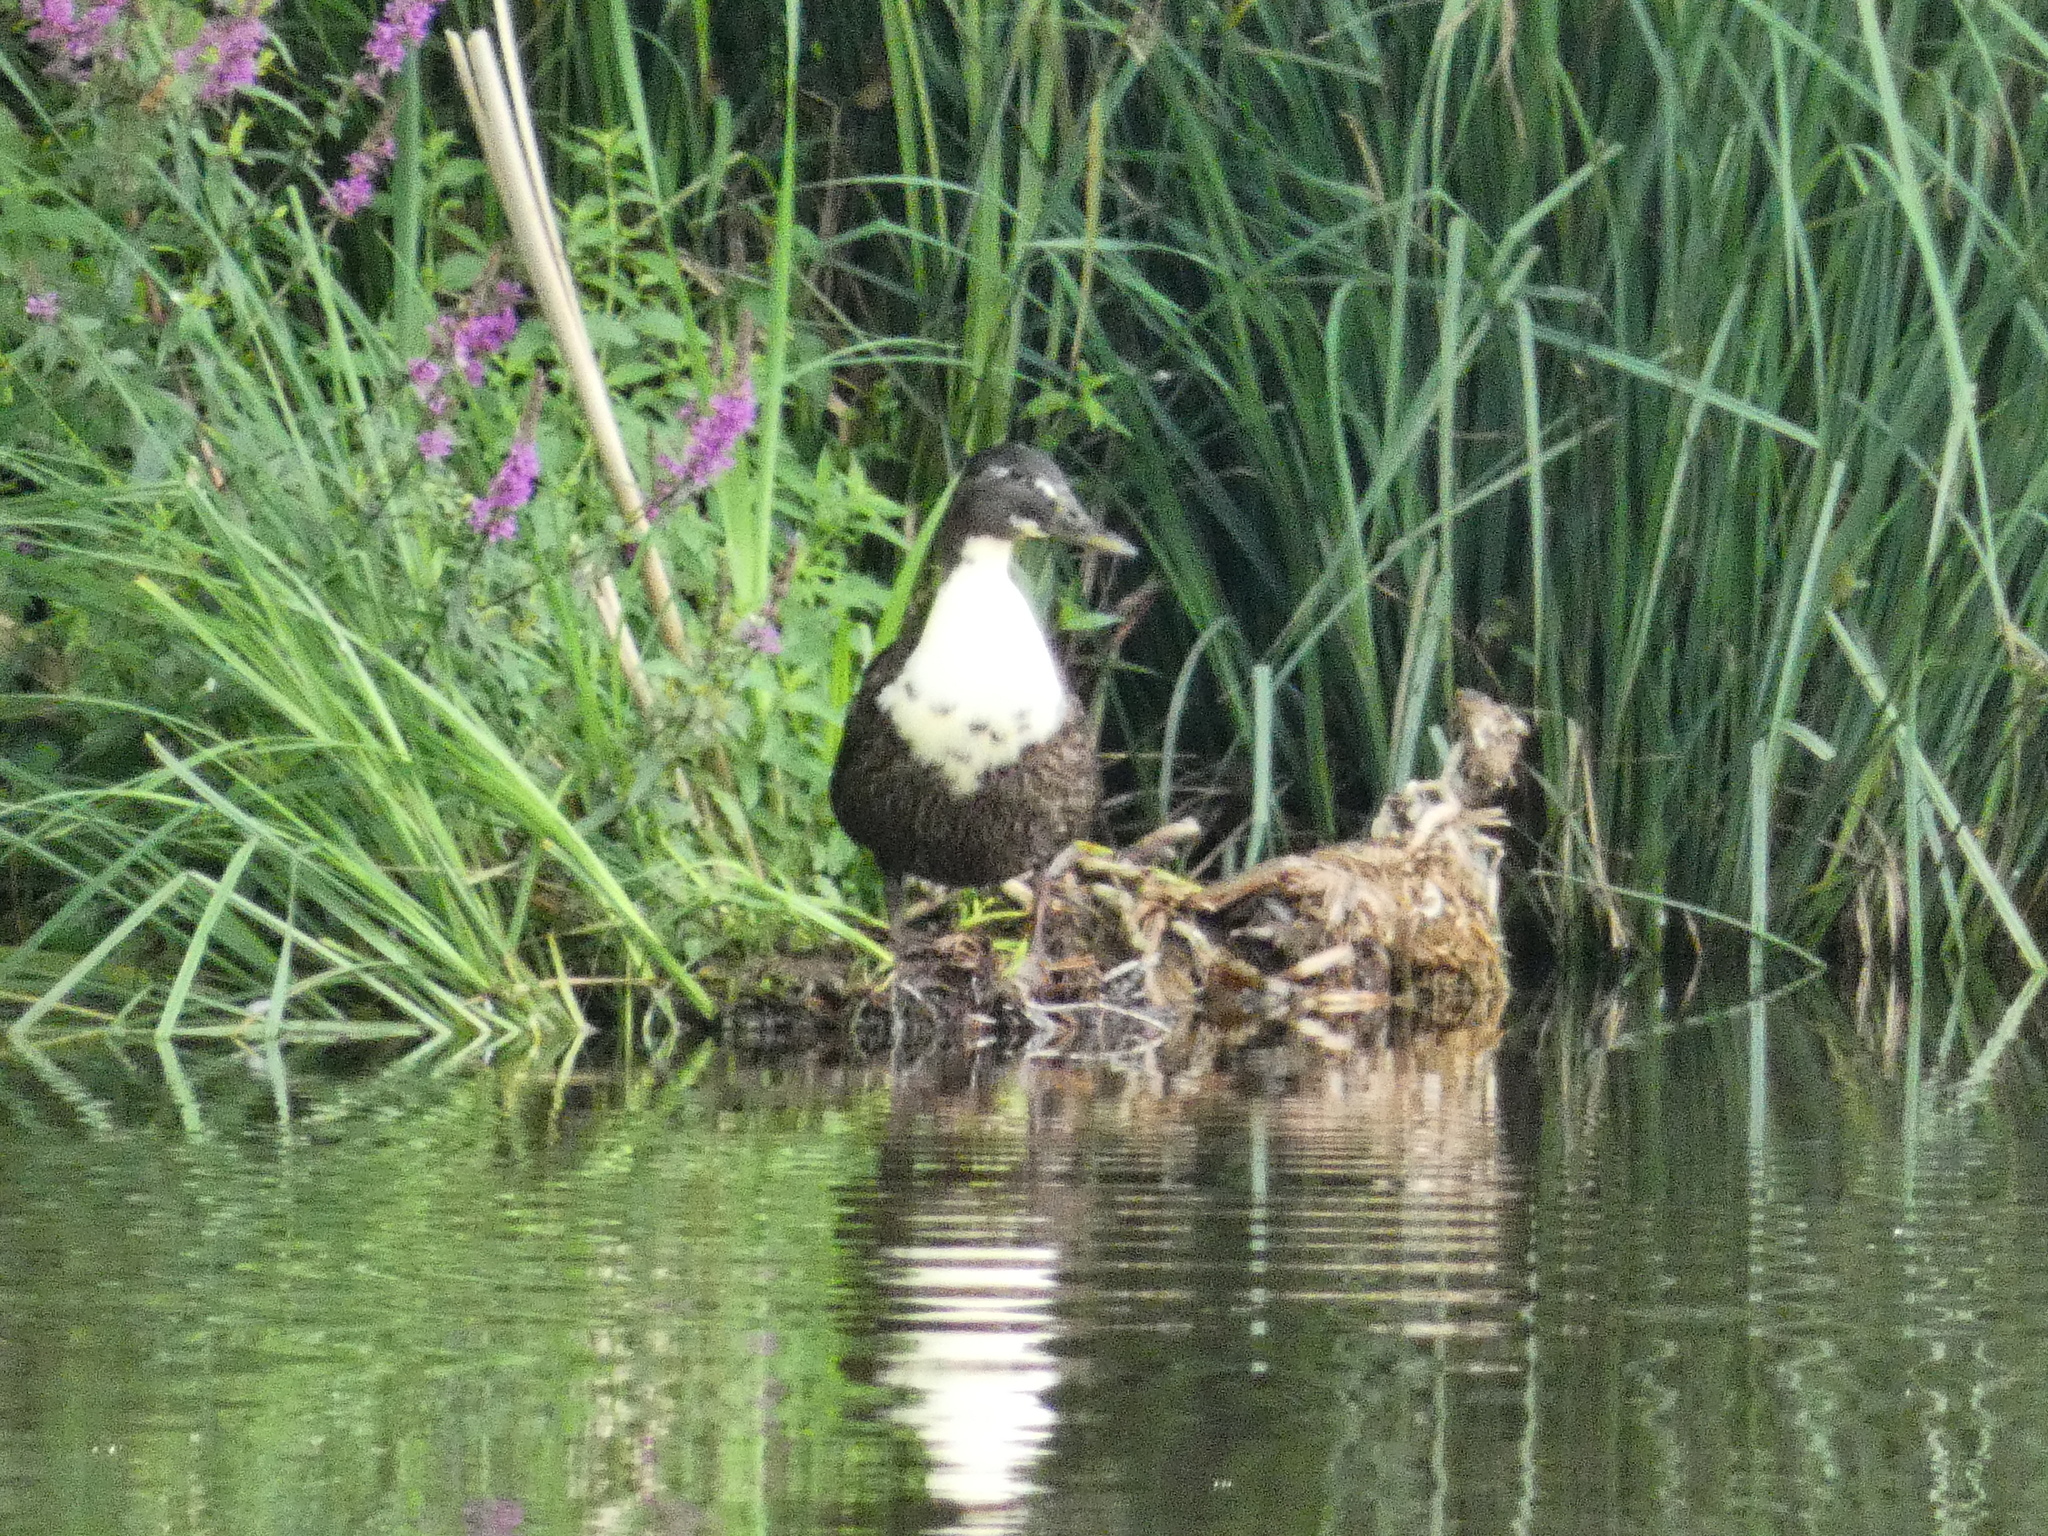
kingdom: Animalia
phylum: Chordata
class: Aves
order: Anseriformes
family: Anatidae
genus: Anas
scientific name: Anas platyrhynchos
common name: Mallard
